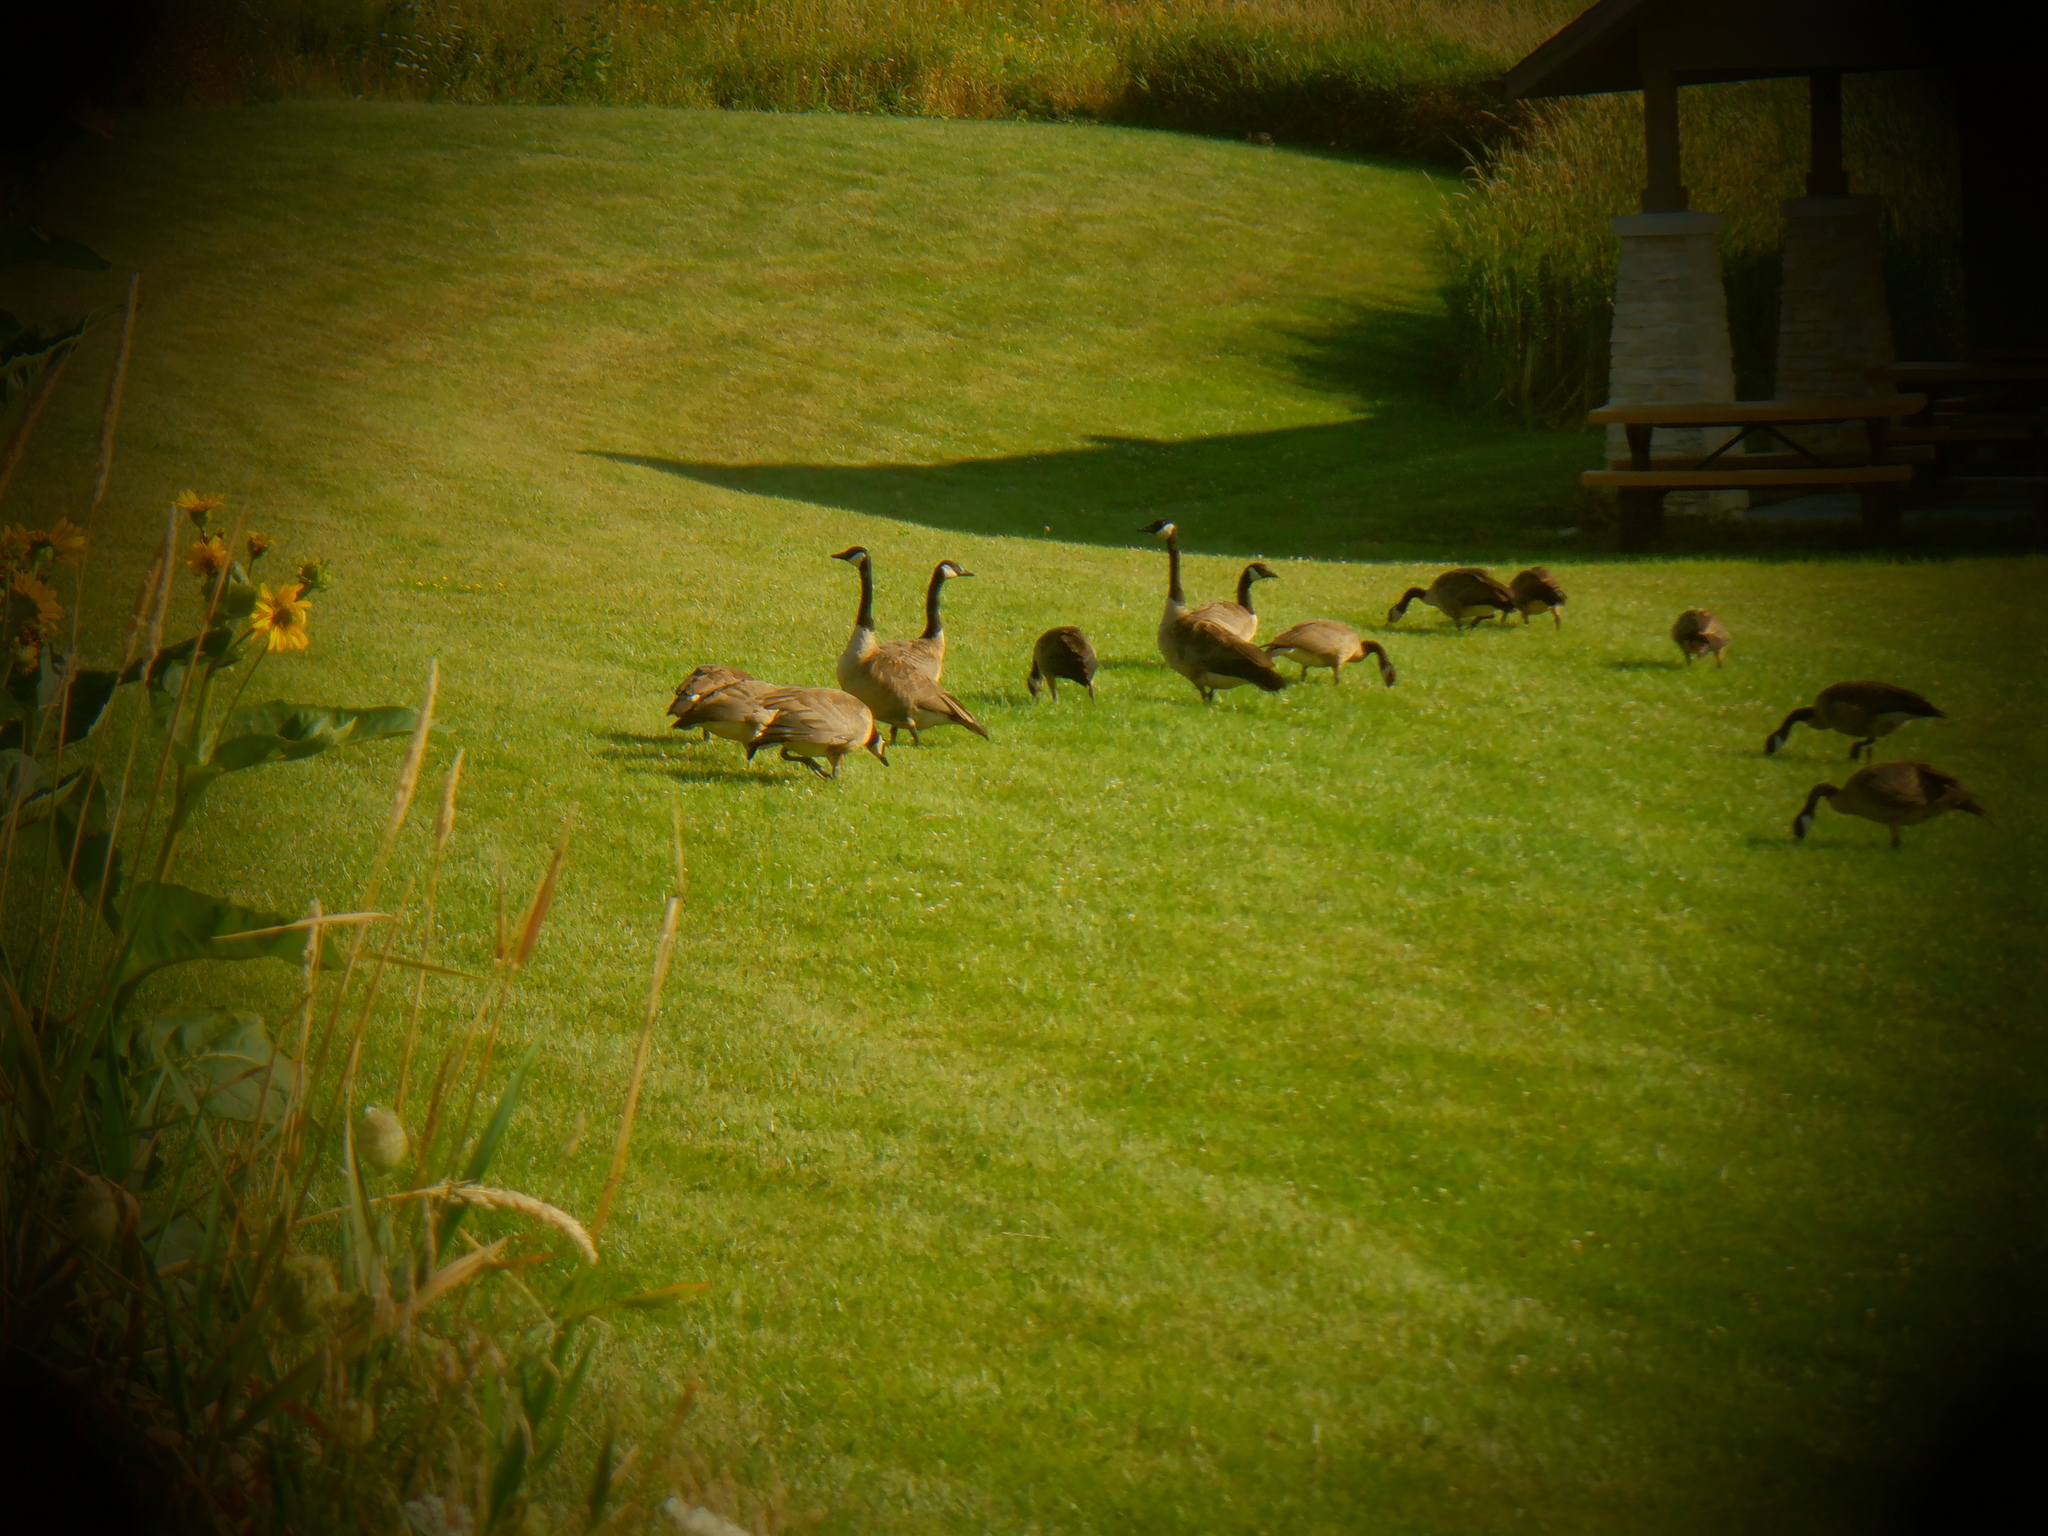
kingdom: Animalia
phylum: Chordata
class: Aves
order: Anseriformes
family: Anatidae
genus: Branta
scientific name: Branta canadensis
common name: Canada goose
